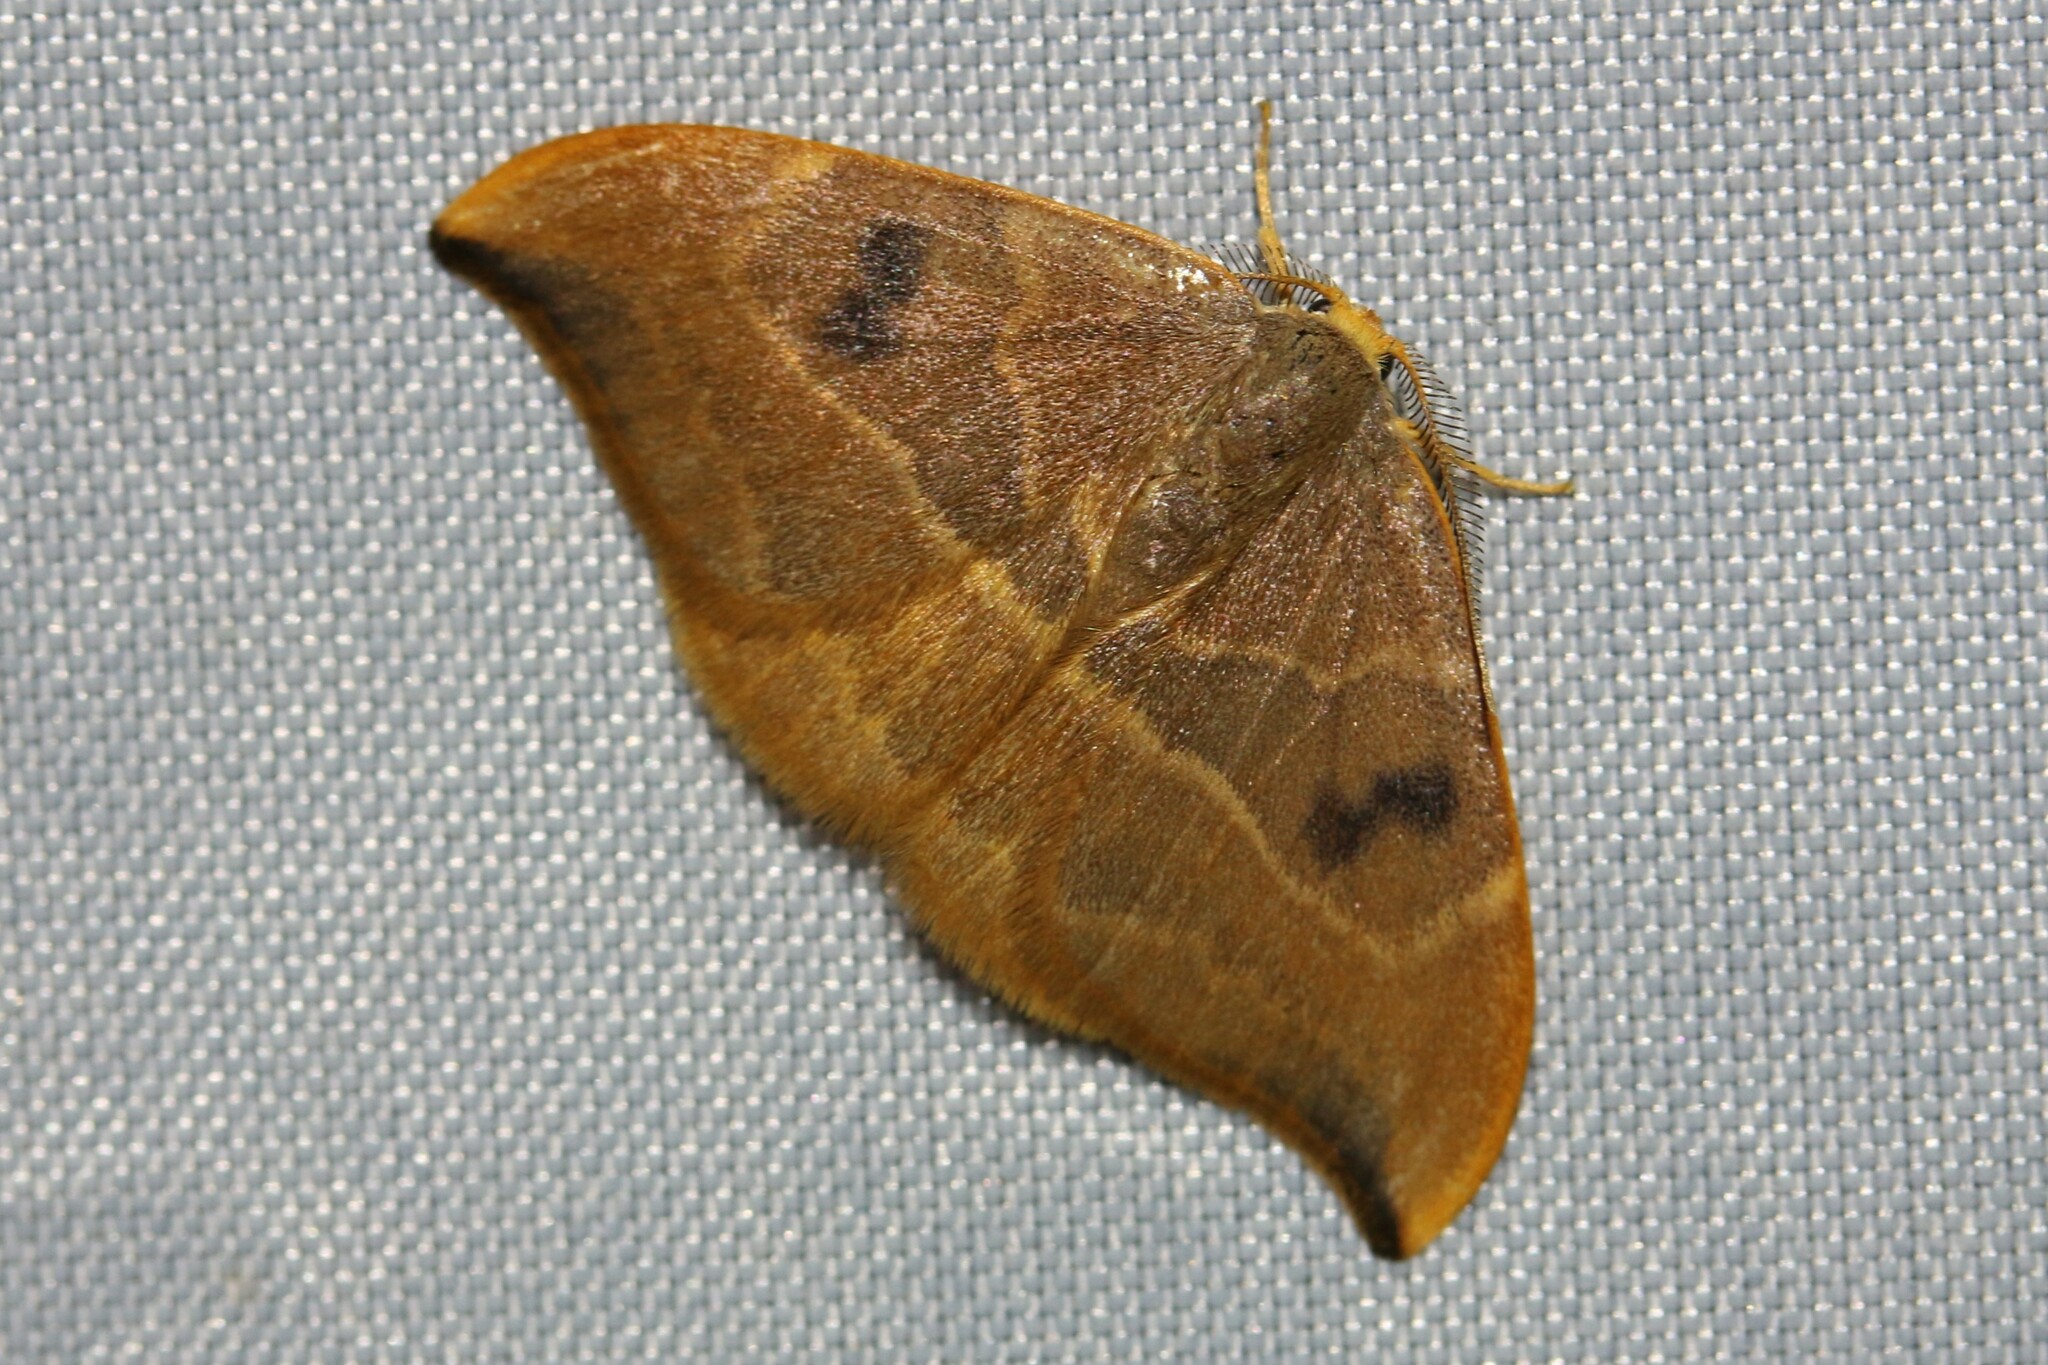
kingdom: Animalia
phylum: Arthropoda
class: Insecta
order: Lepidoptera
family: Drepanidae
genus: Watsonalla
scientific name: Watsonalla binaria
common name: Oak hook-tip
